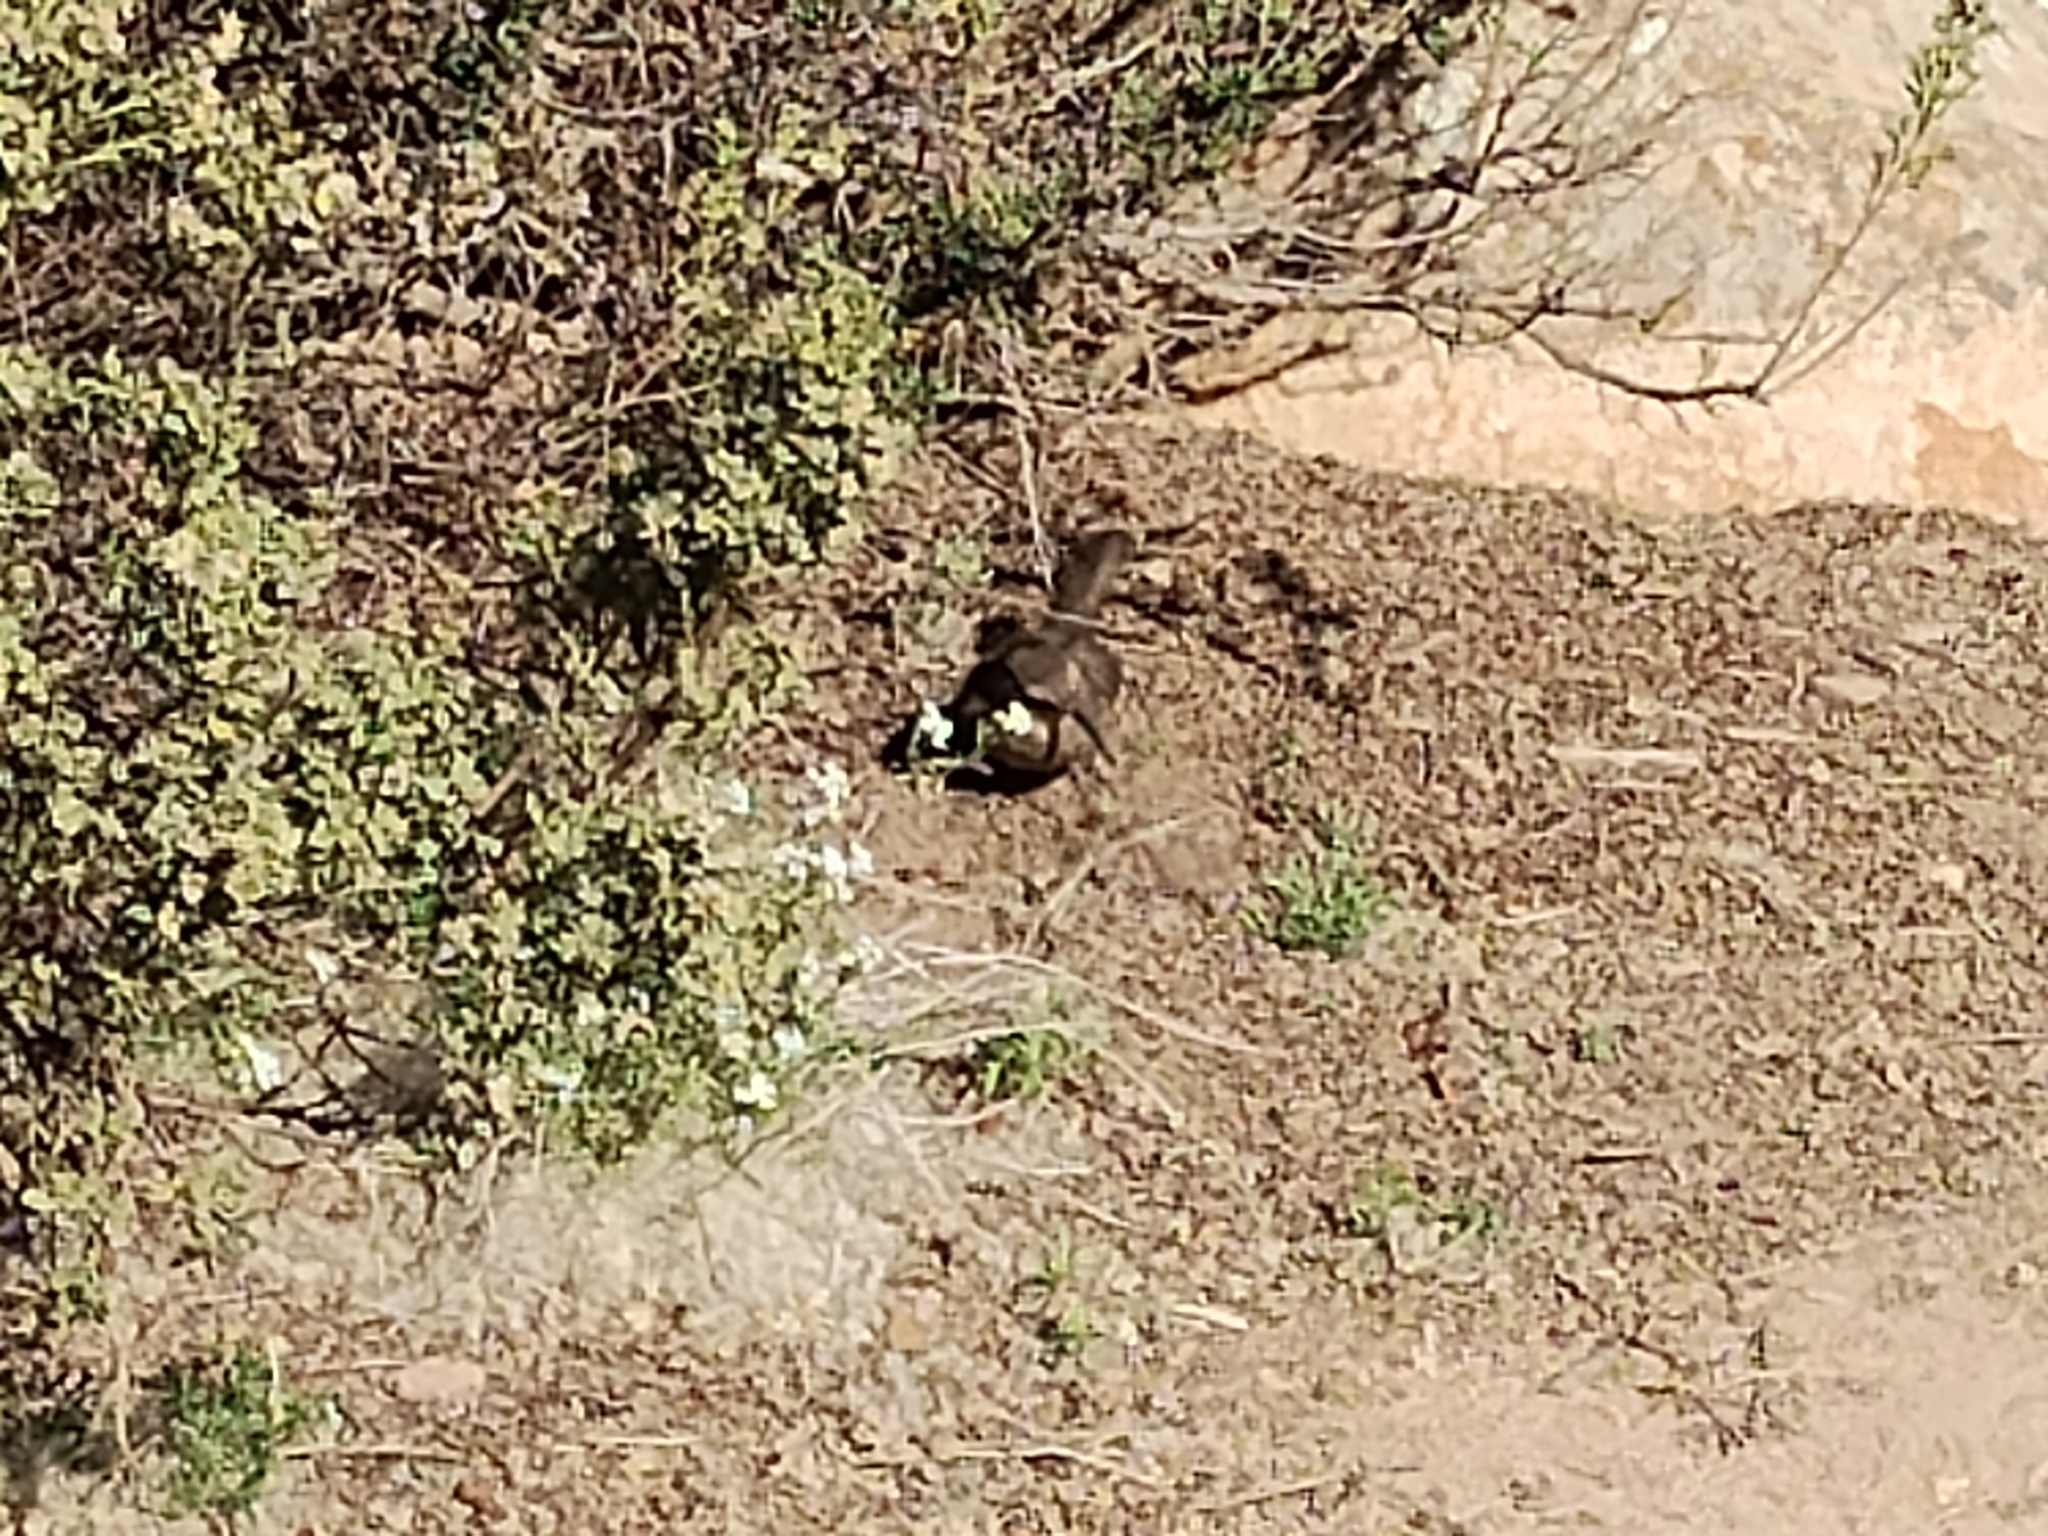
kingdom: Animalia
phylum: Chordata
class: Aves
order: Passeriformes
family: Mimidae
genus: Toxostoma
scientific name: Toxostoma redivivum
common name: California thrasher
